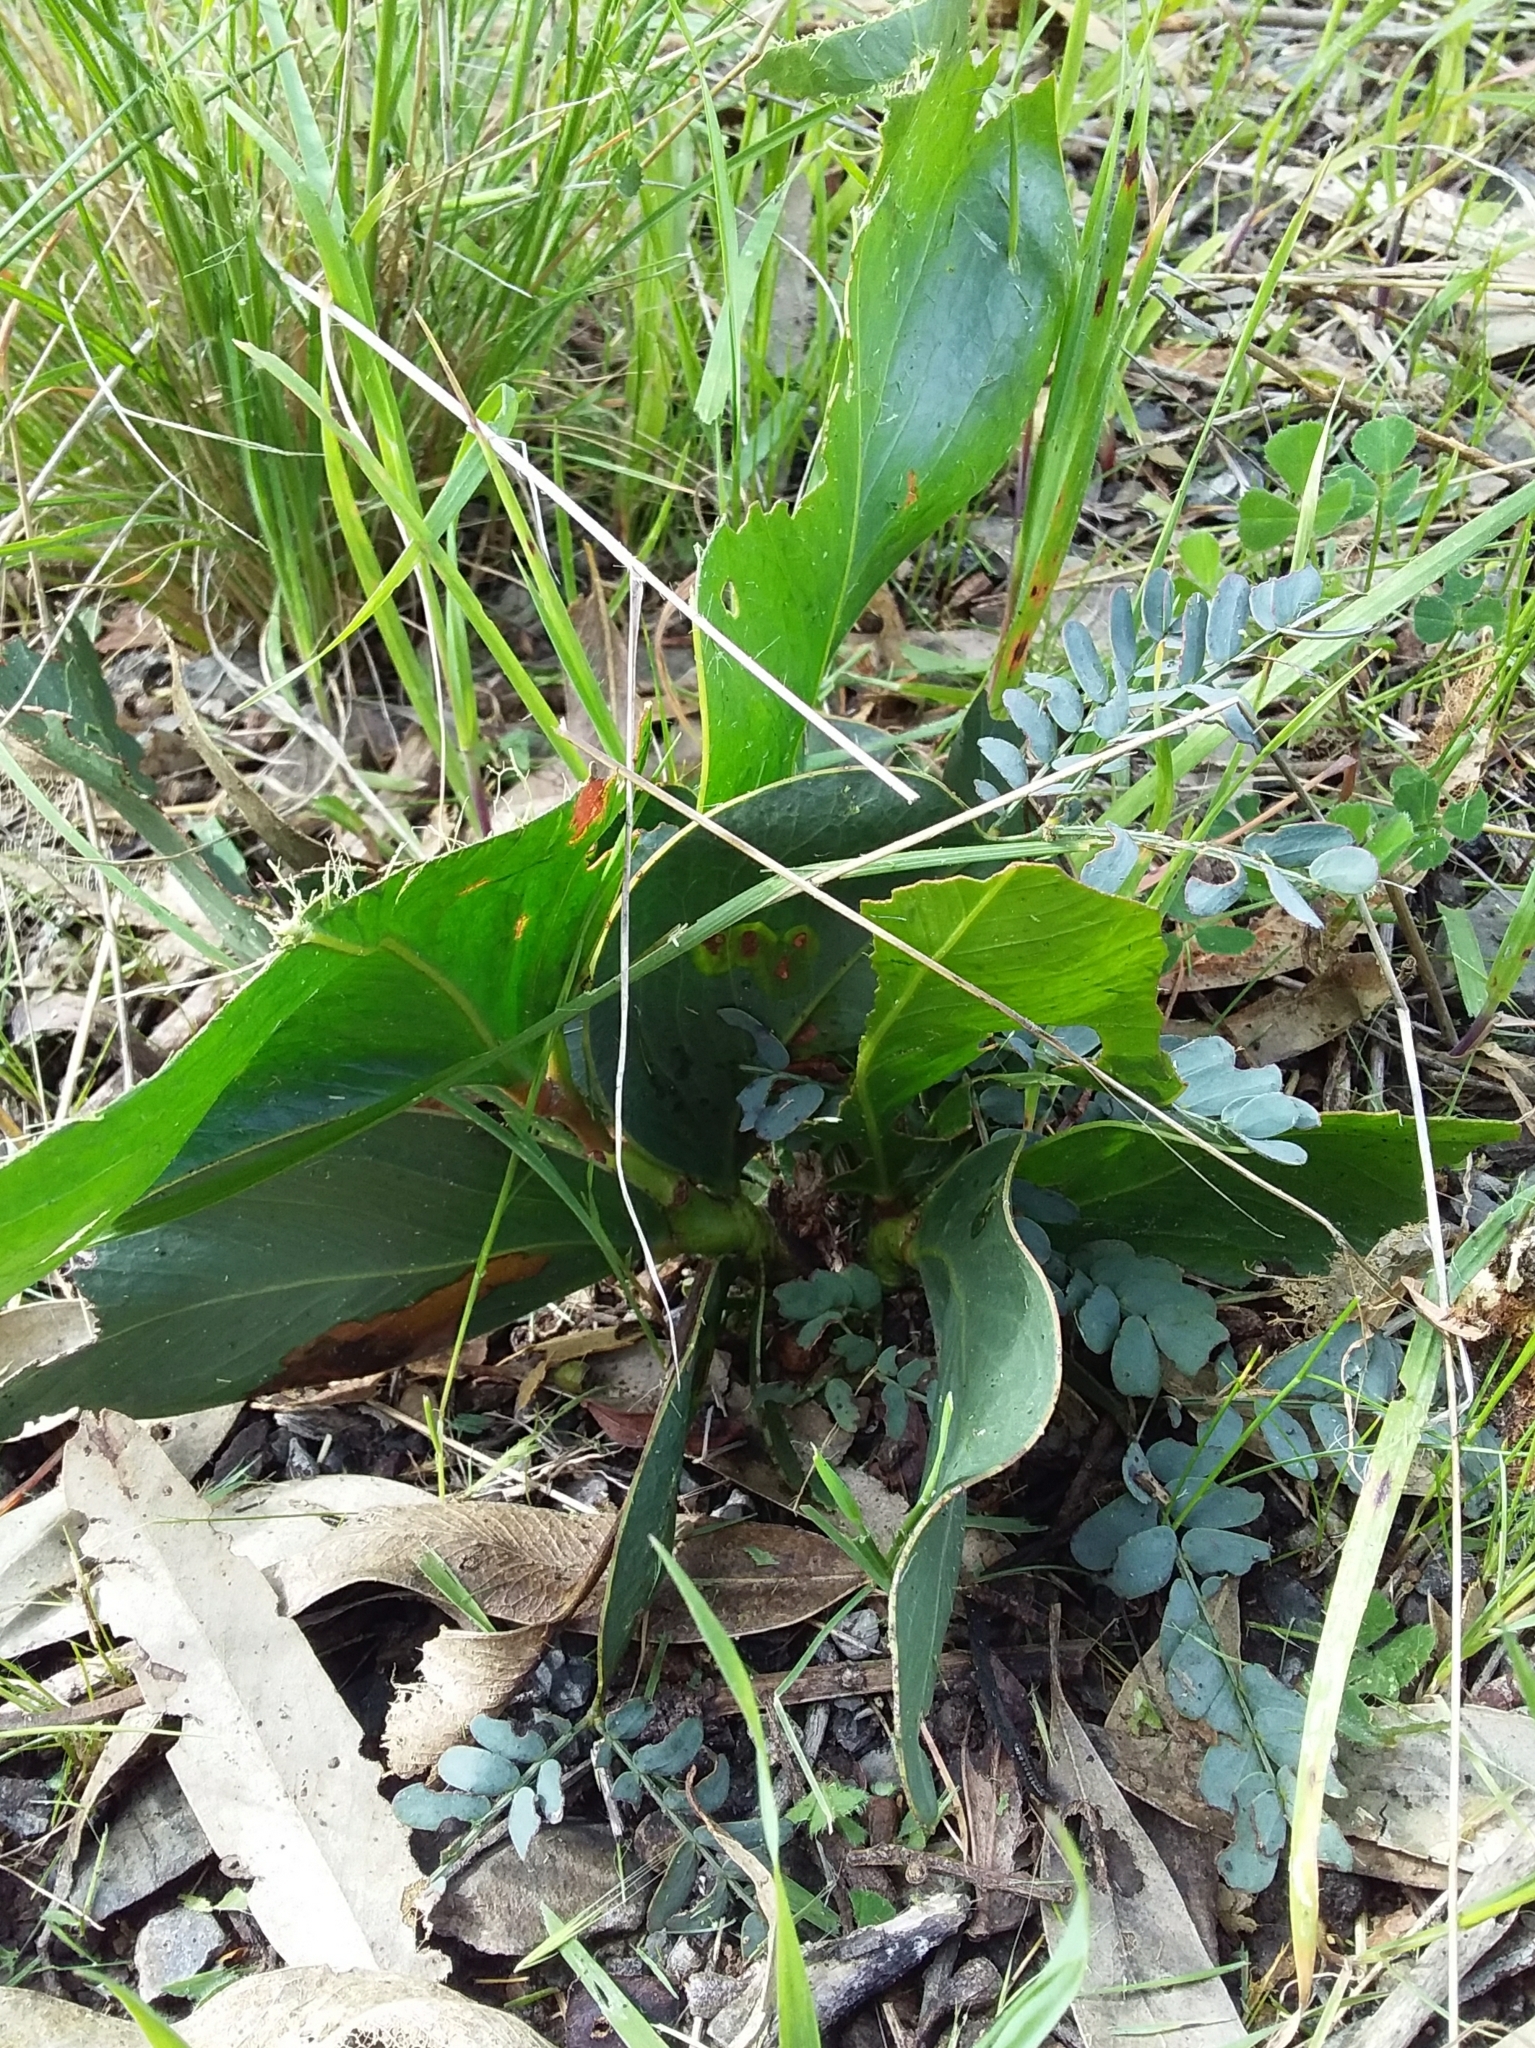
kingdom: Plantae
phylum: Tracheophyta
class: Magnoliopsida
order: Fabales
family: Fabaceae
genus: Acacia
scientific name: Acacia pycnantha
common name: Golden wattle
